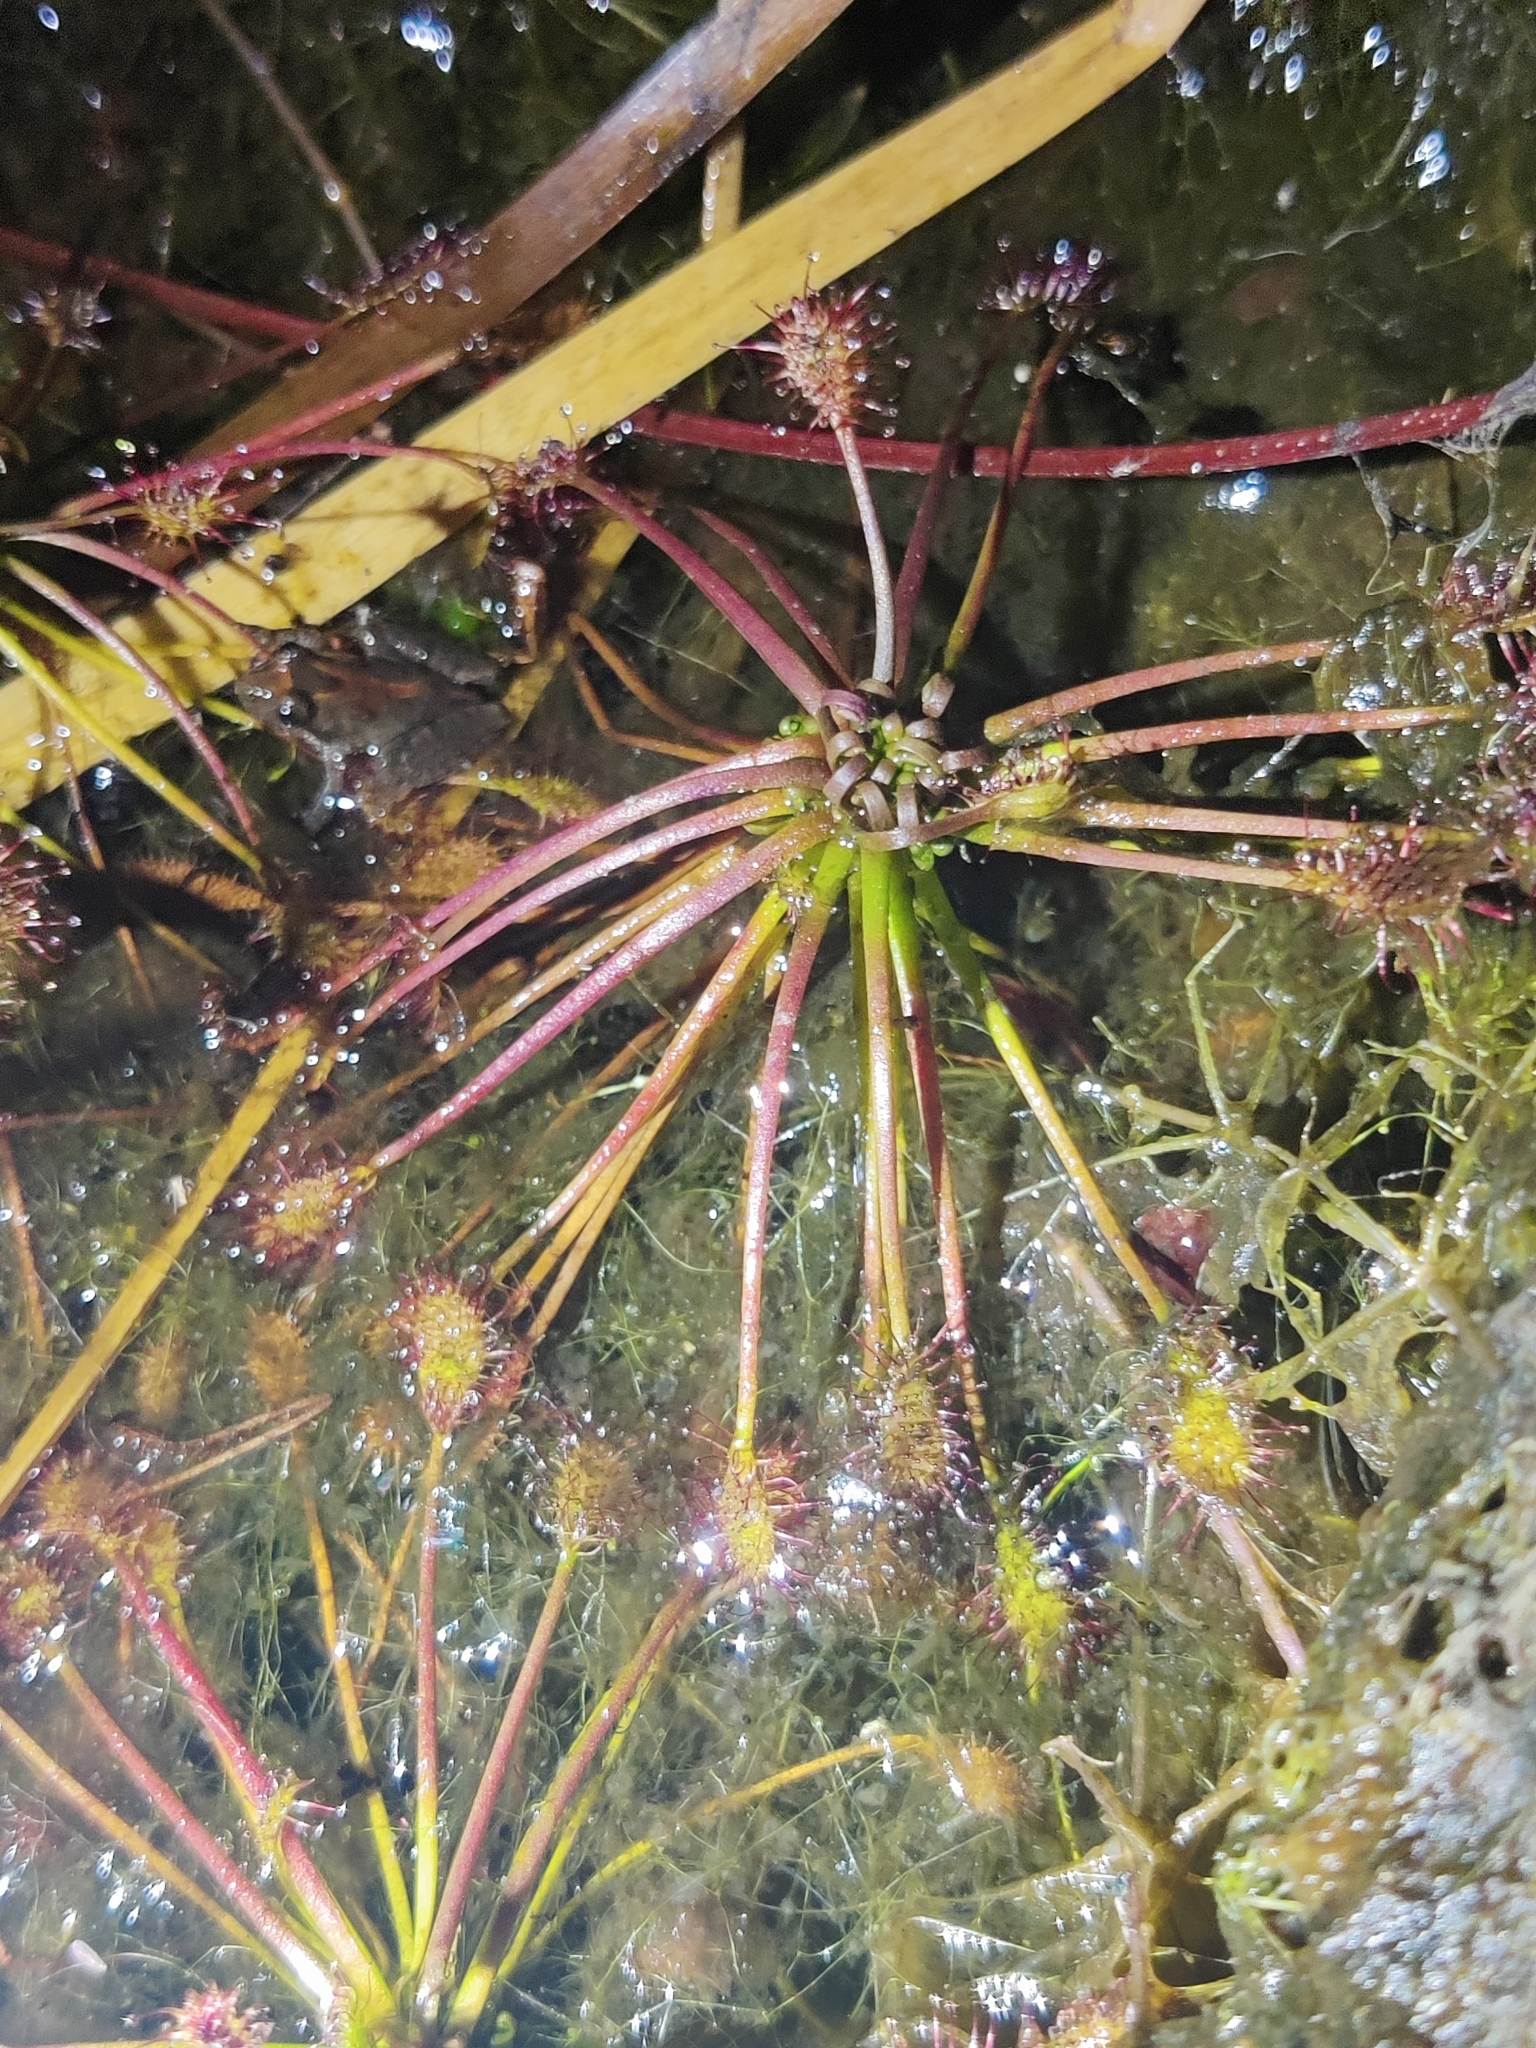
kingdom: Plantae
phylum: Tracheophyta
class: Magnoliopsida
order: Caryophyllales
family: Droseraceae
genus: Drosera
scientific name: Drosera intermedia
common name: Oblong-leaved sundew
